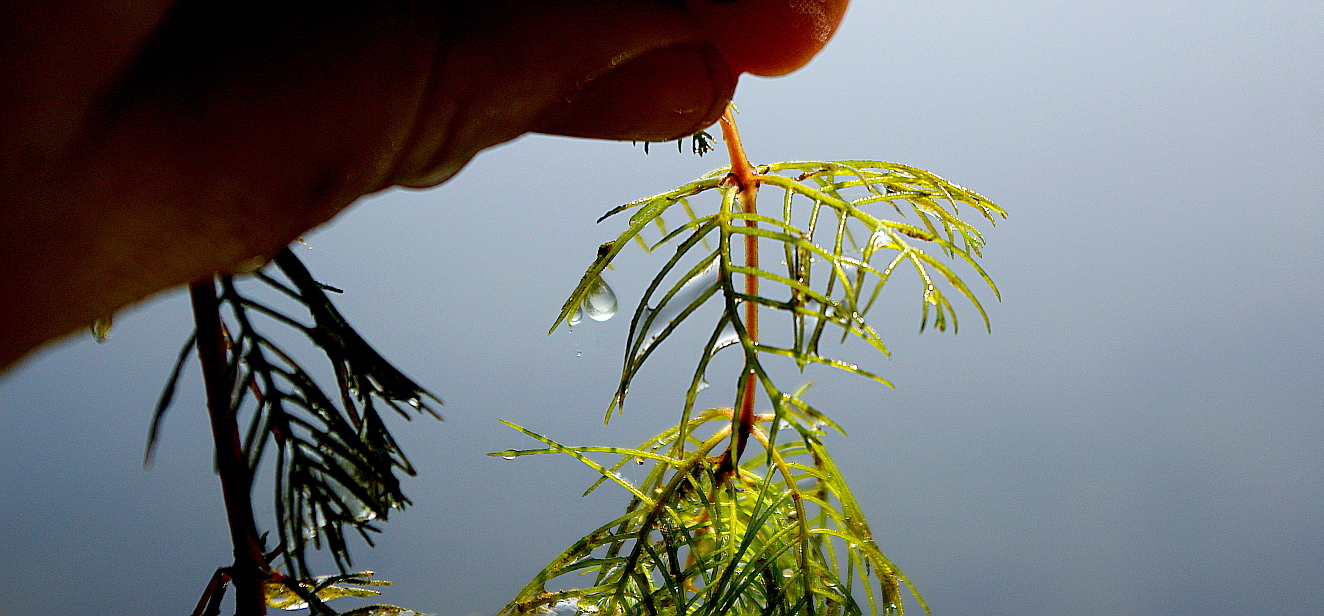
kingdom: Plantae
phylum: Tracheophyta
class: Magnoliopsida
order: Saxifragales
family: Haloragaceae
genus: Myriophyllum
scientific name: Myriophyllum sibiricum
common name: Siberian water-milfoil
